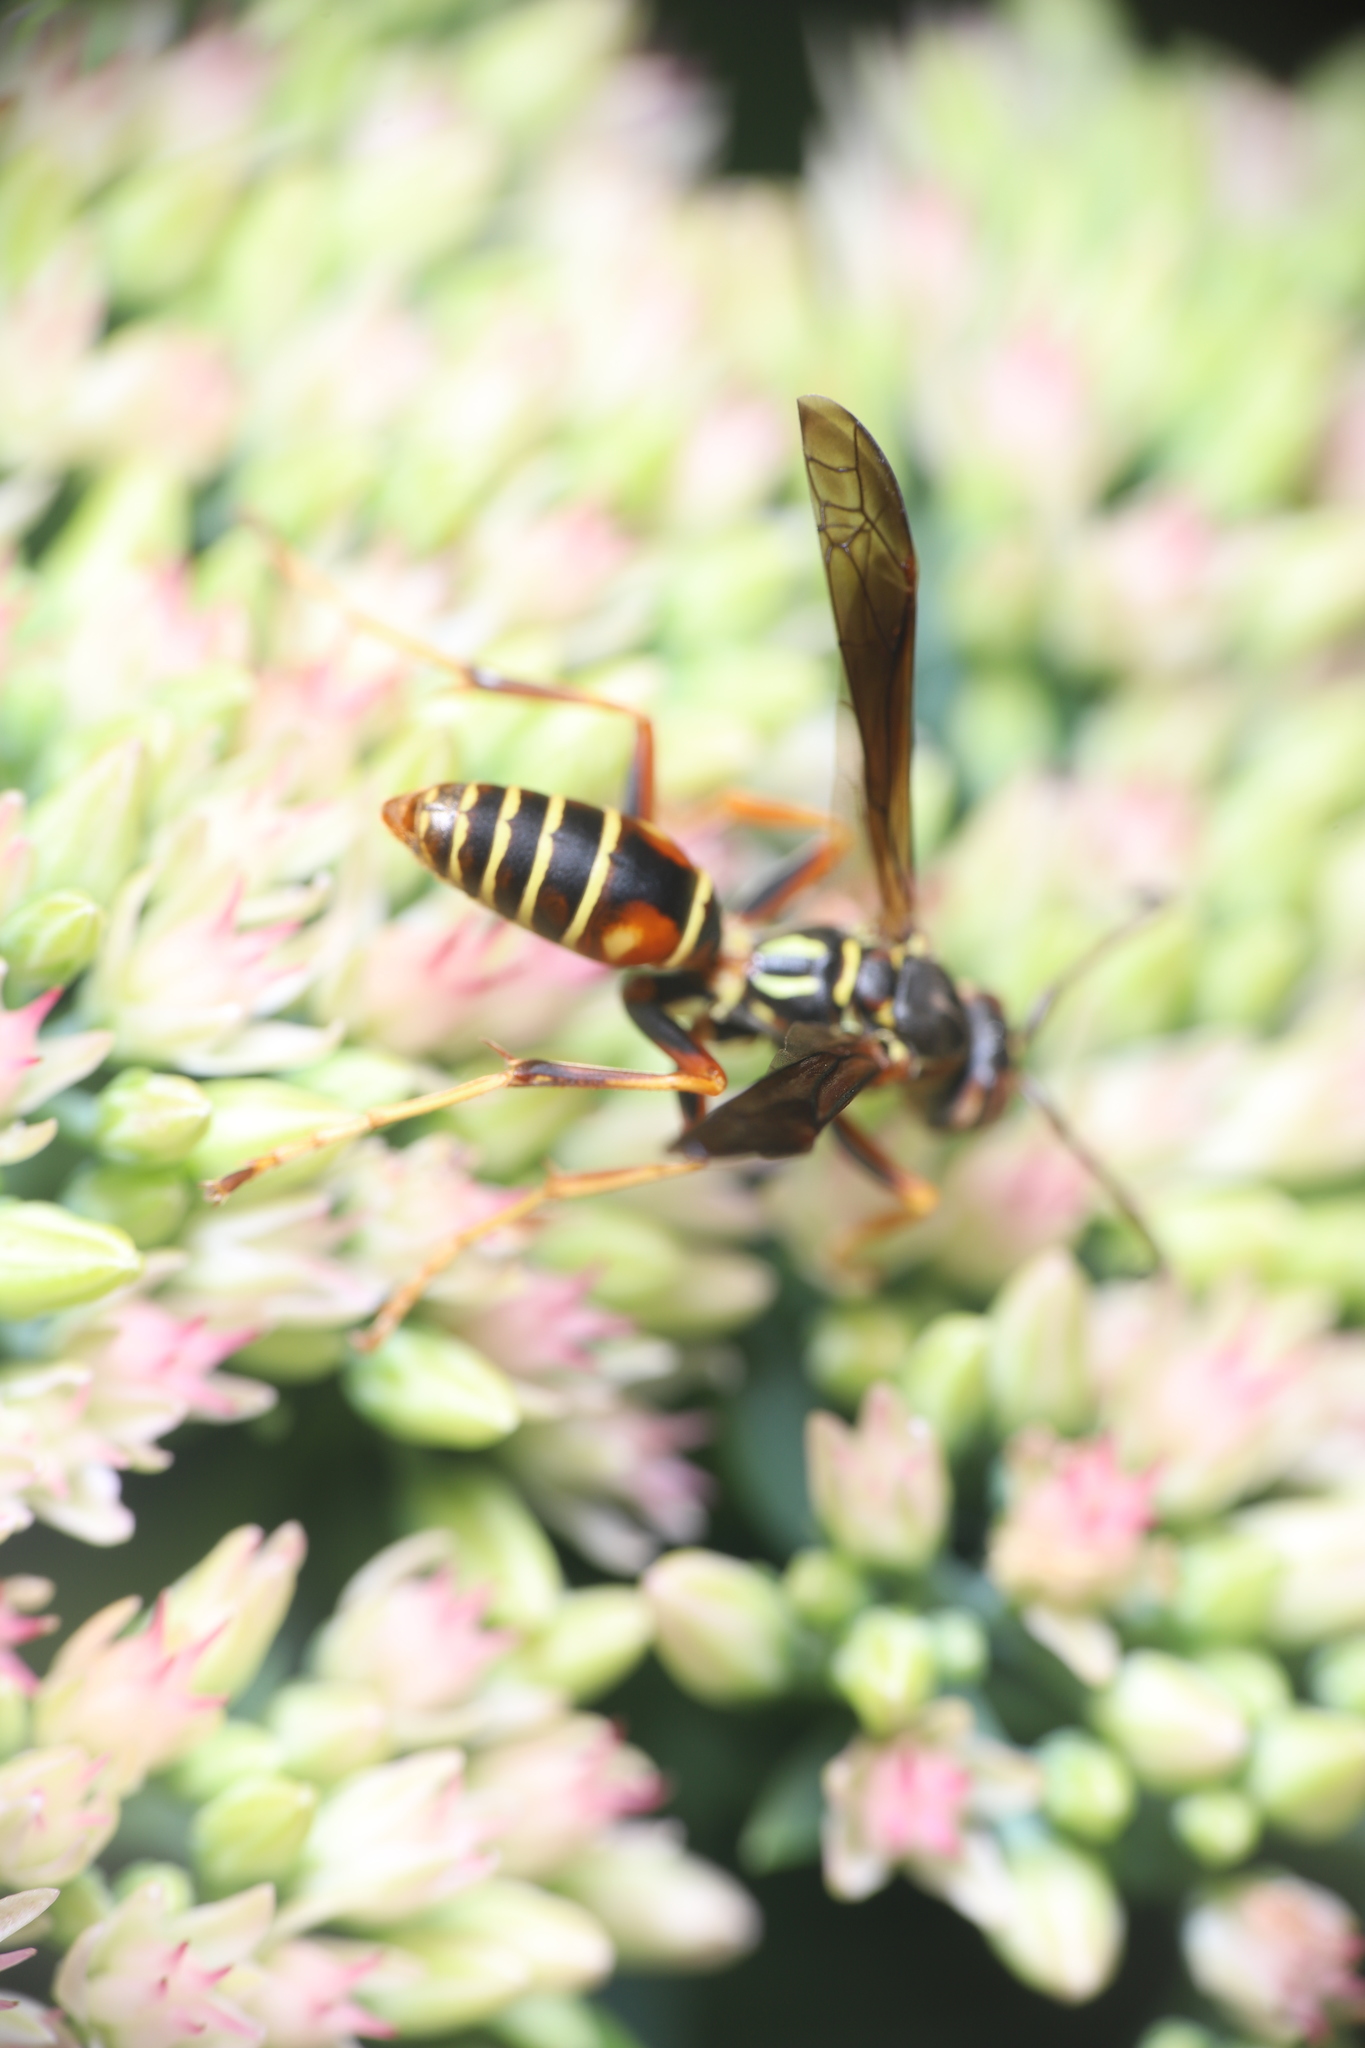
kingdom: Animalia
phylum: Arthropoda
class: Insecta
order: Hymenoptera
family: Eumenidae
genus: Polistes
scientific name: Polistes fuscatus
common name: Dark paper wasp
